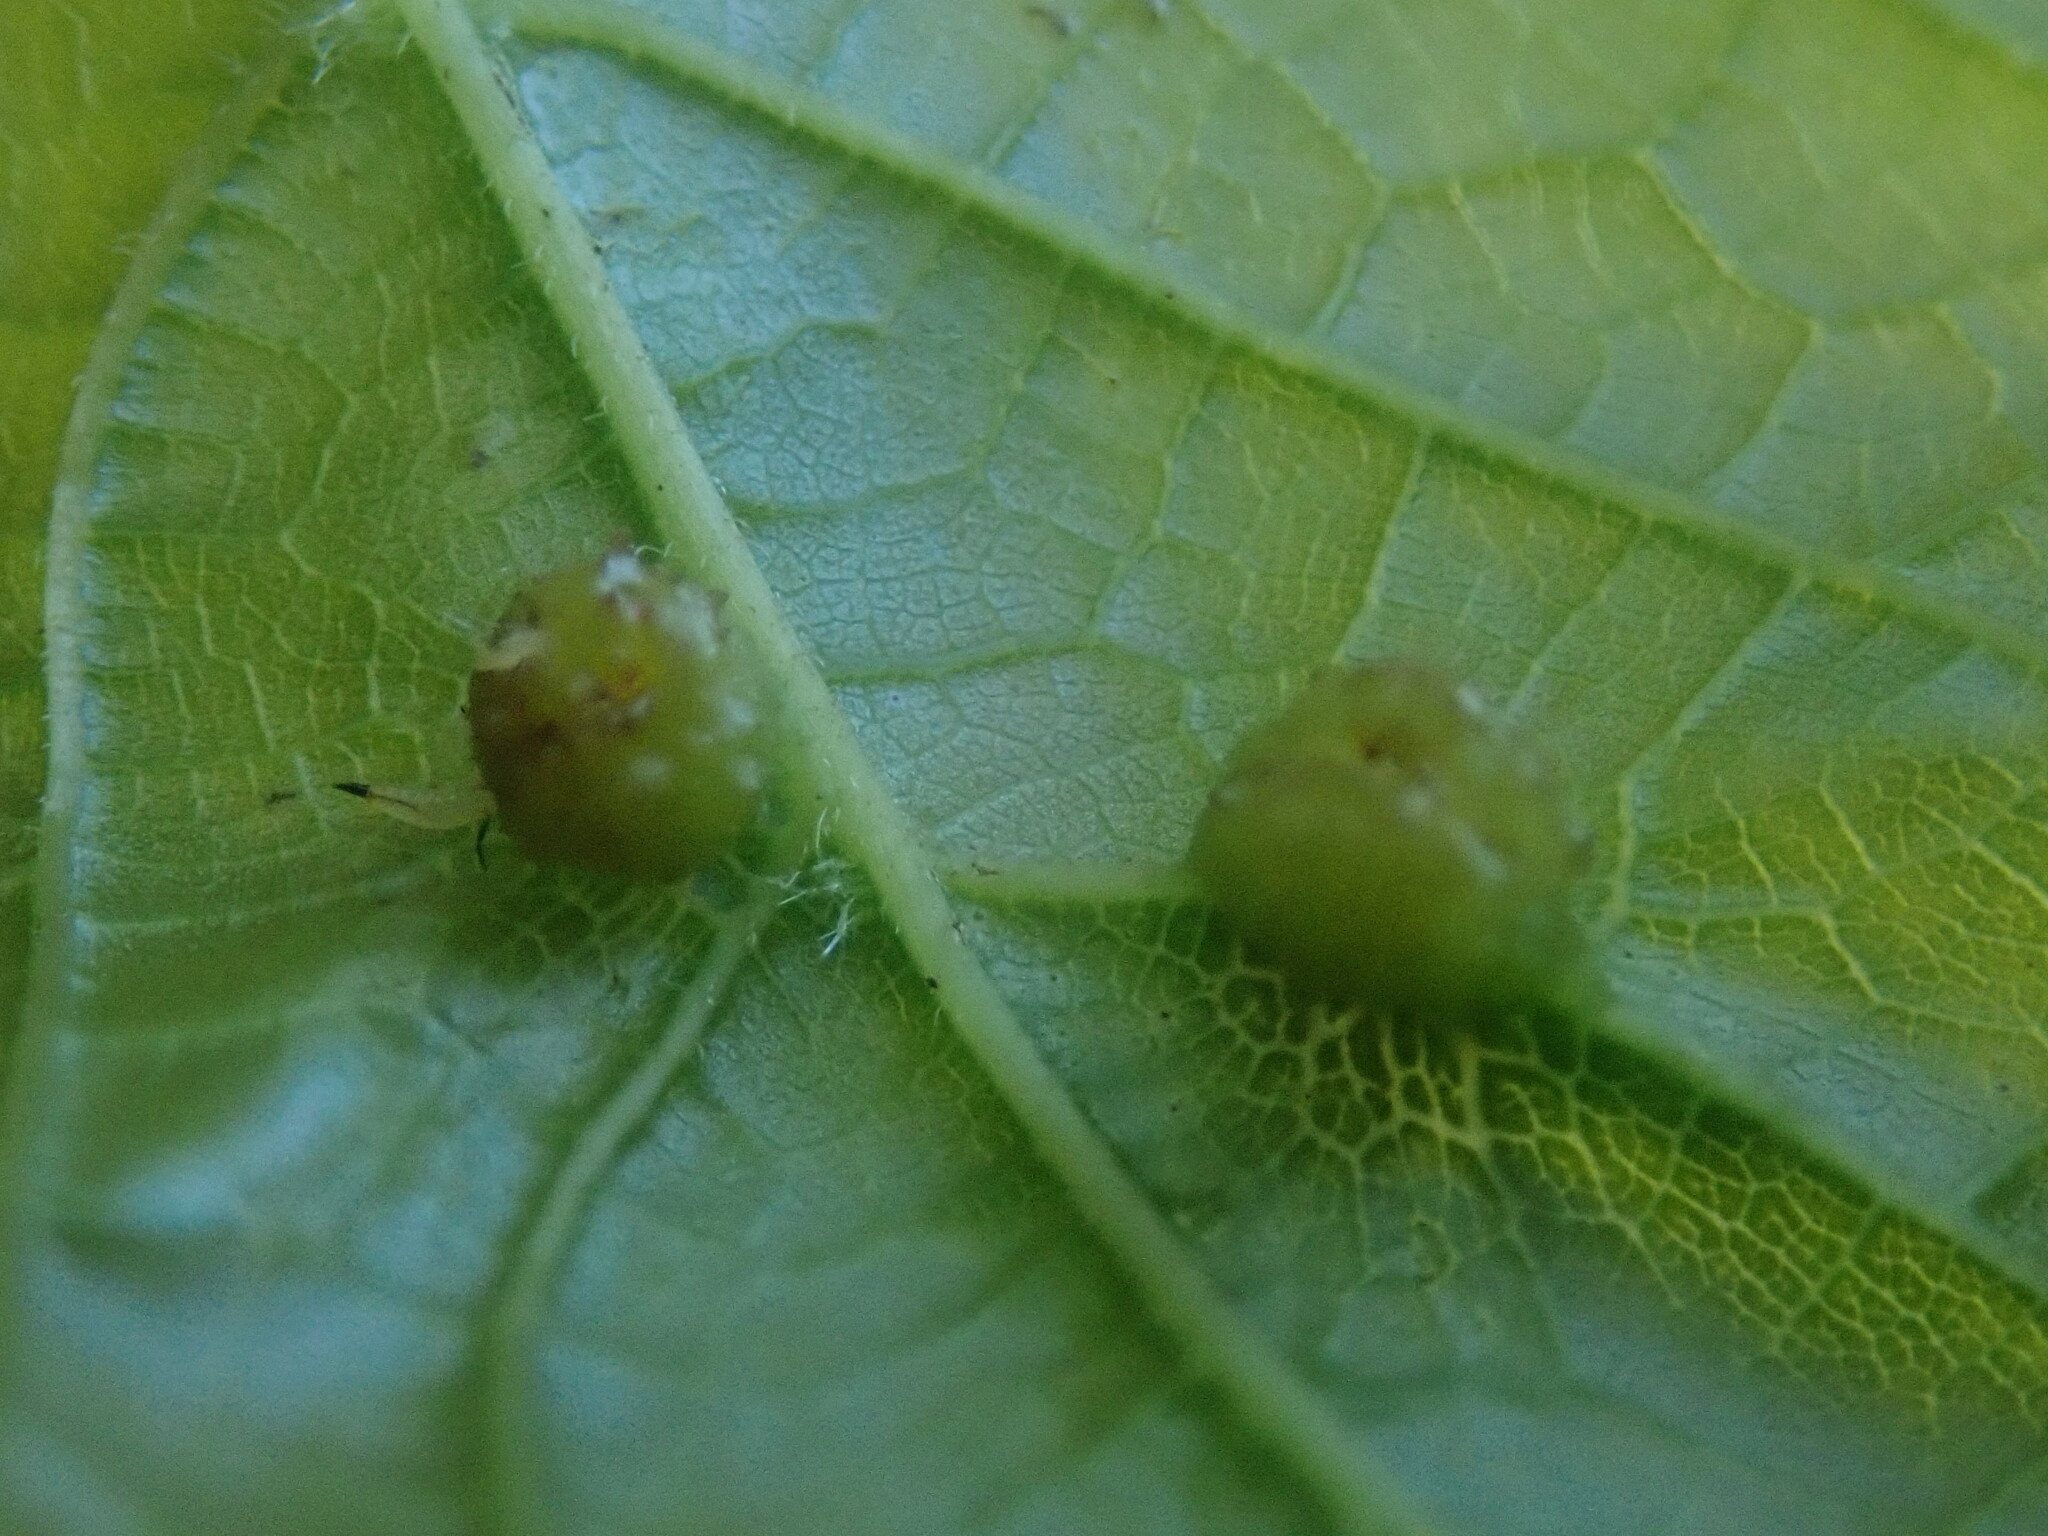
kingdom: Animalia
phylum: Arthropoda
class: Insecta
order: Hemiptera
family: Phylloxeridae
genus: Daktulosphaira
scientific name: Daktulosphaira vitifoliae
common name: Grape phylloxera
